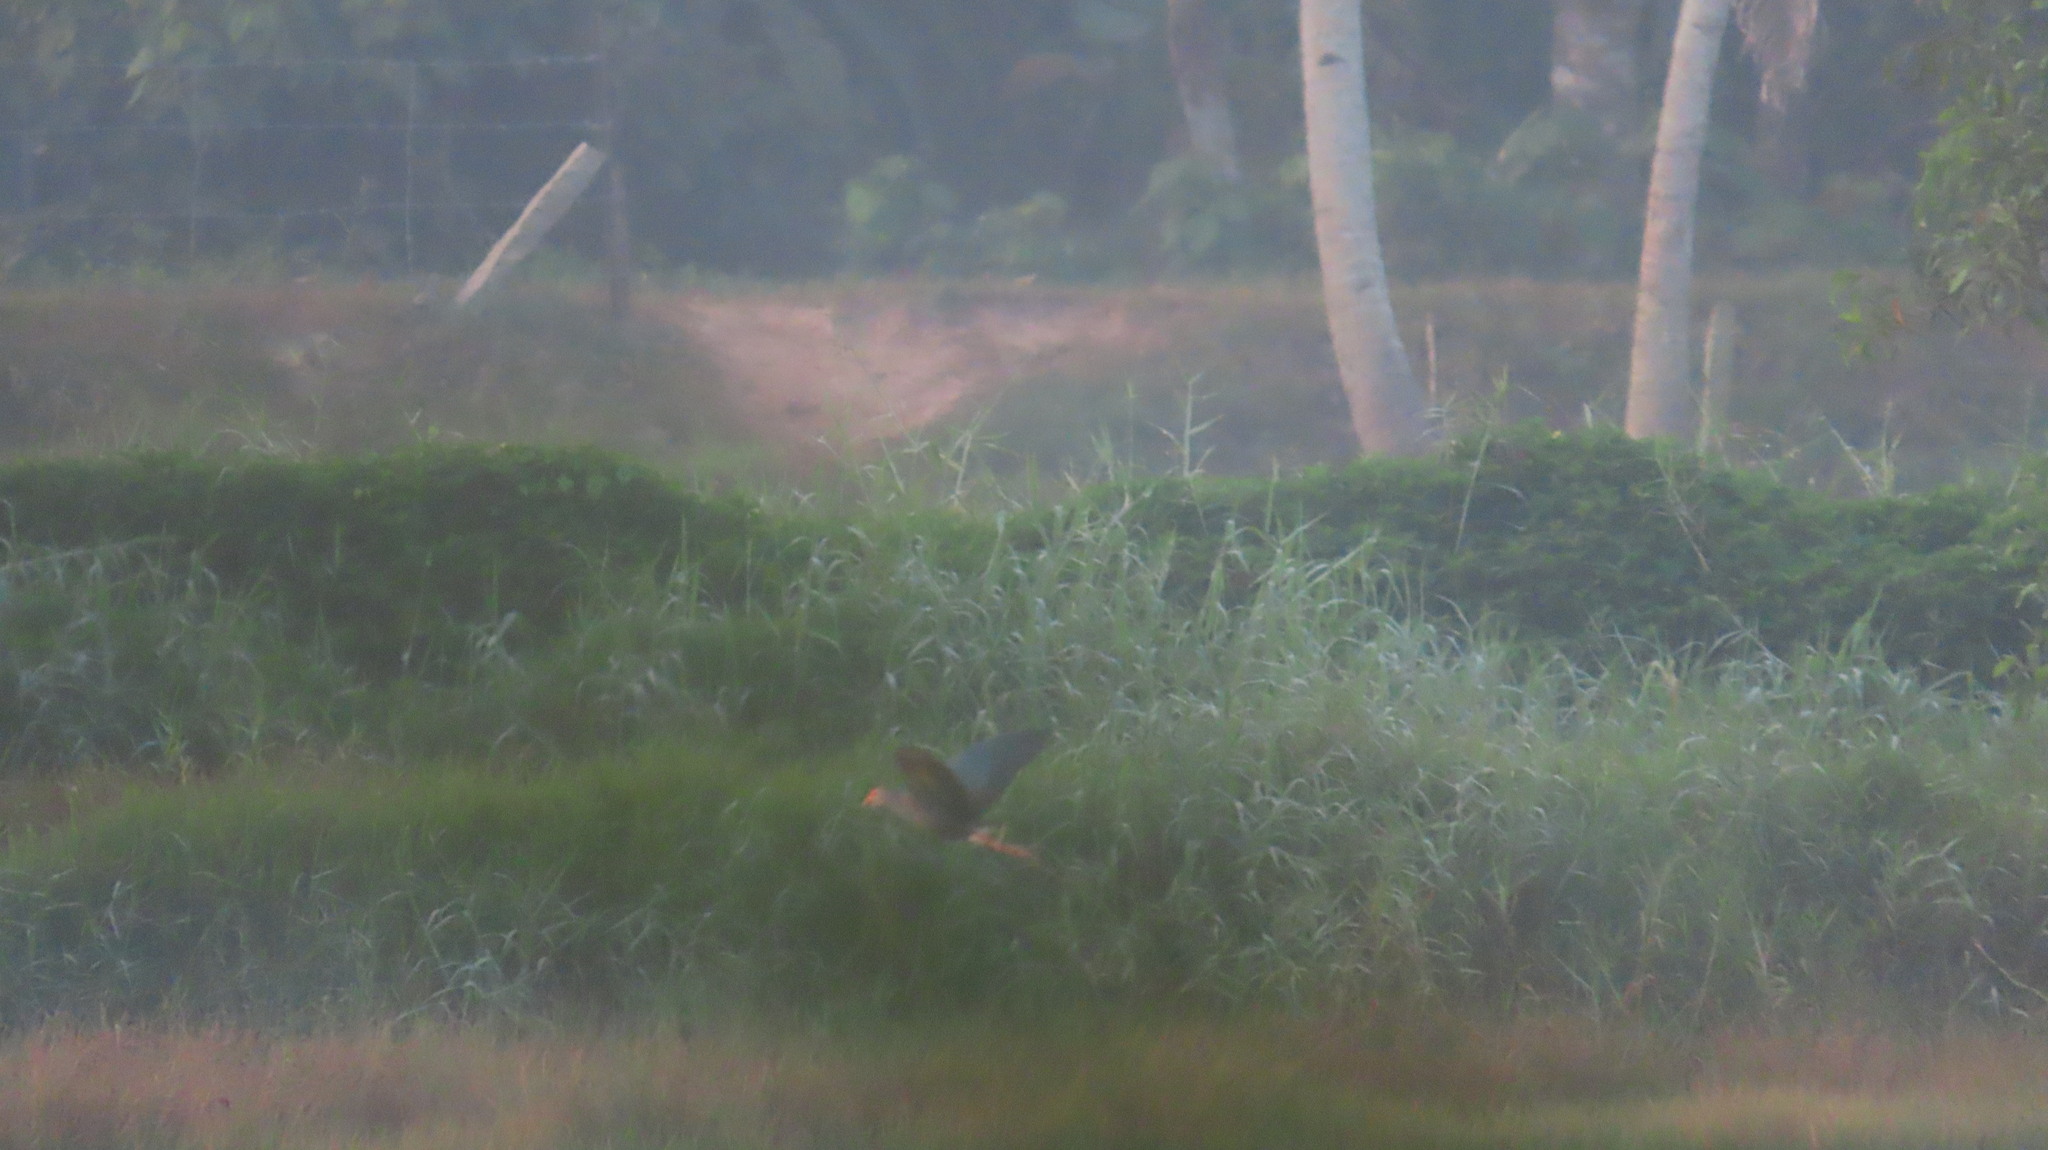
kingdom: Animalia
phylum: Chordata
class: Aves
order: Gruiformes
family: Rallidae
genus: Porphyrio
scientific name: Porphyrio porphyrio
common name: Purple swamphen
